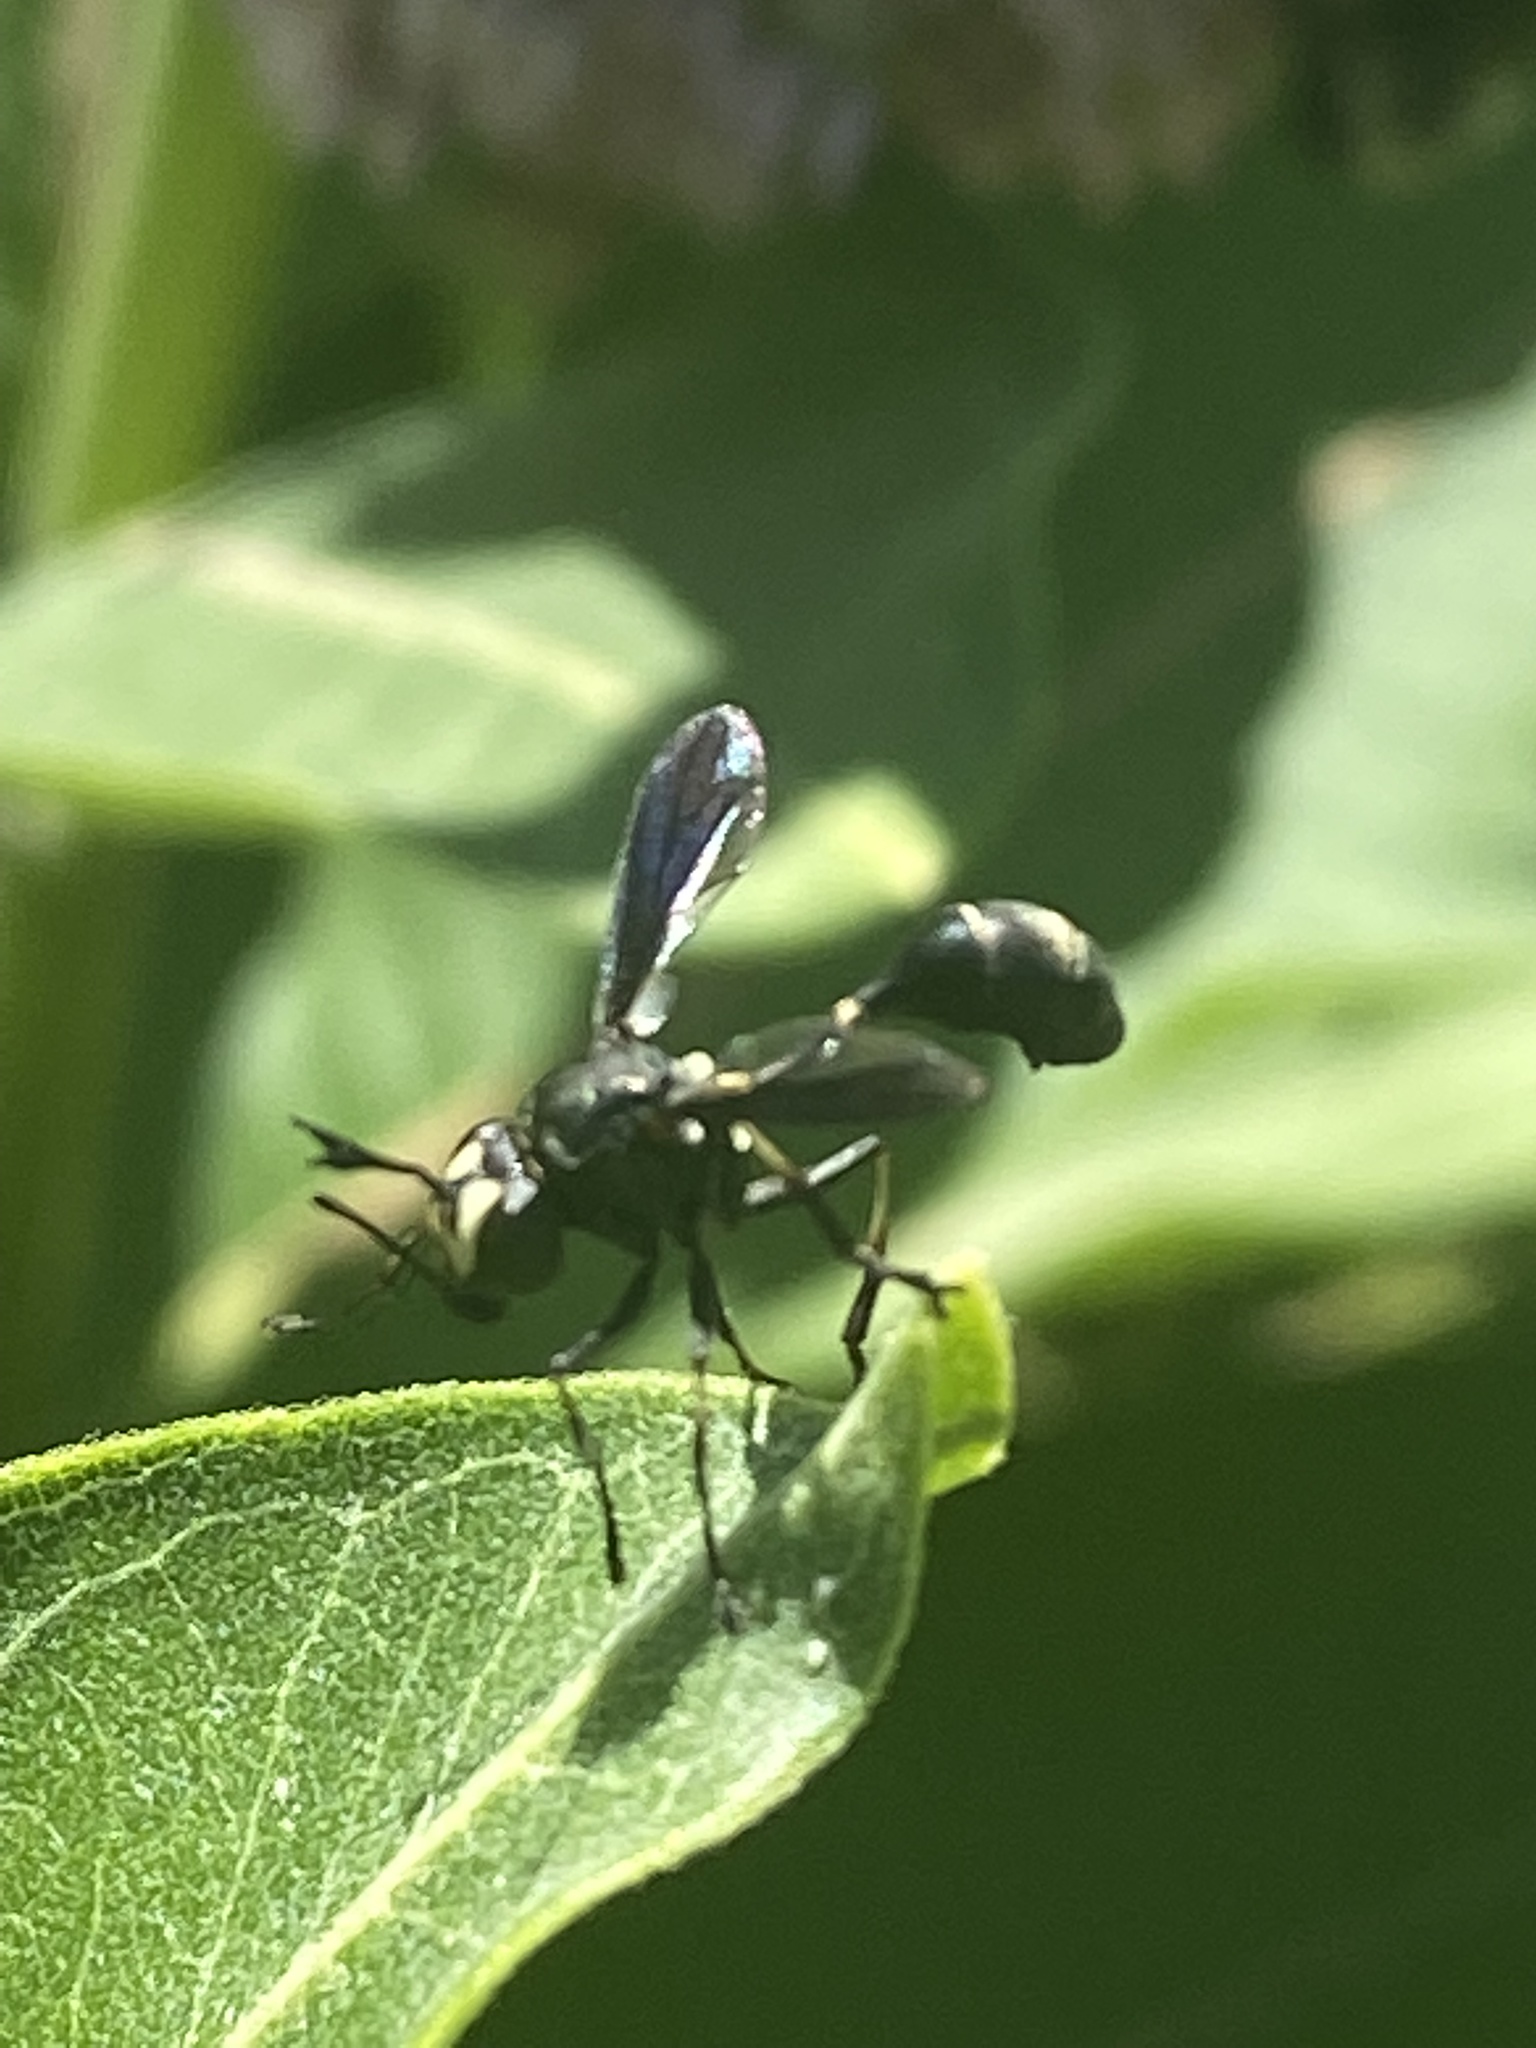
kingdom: Animalia
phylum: Arthropoda
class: Insecta
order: Diptera
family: Conopidae
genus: Physocephala
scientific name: Physocephala tibialis
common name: Common eastern physocephala
